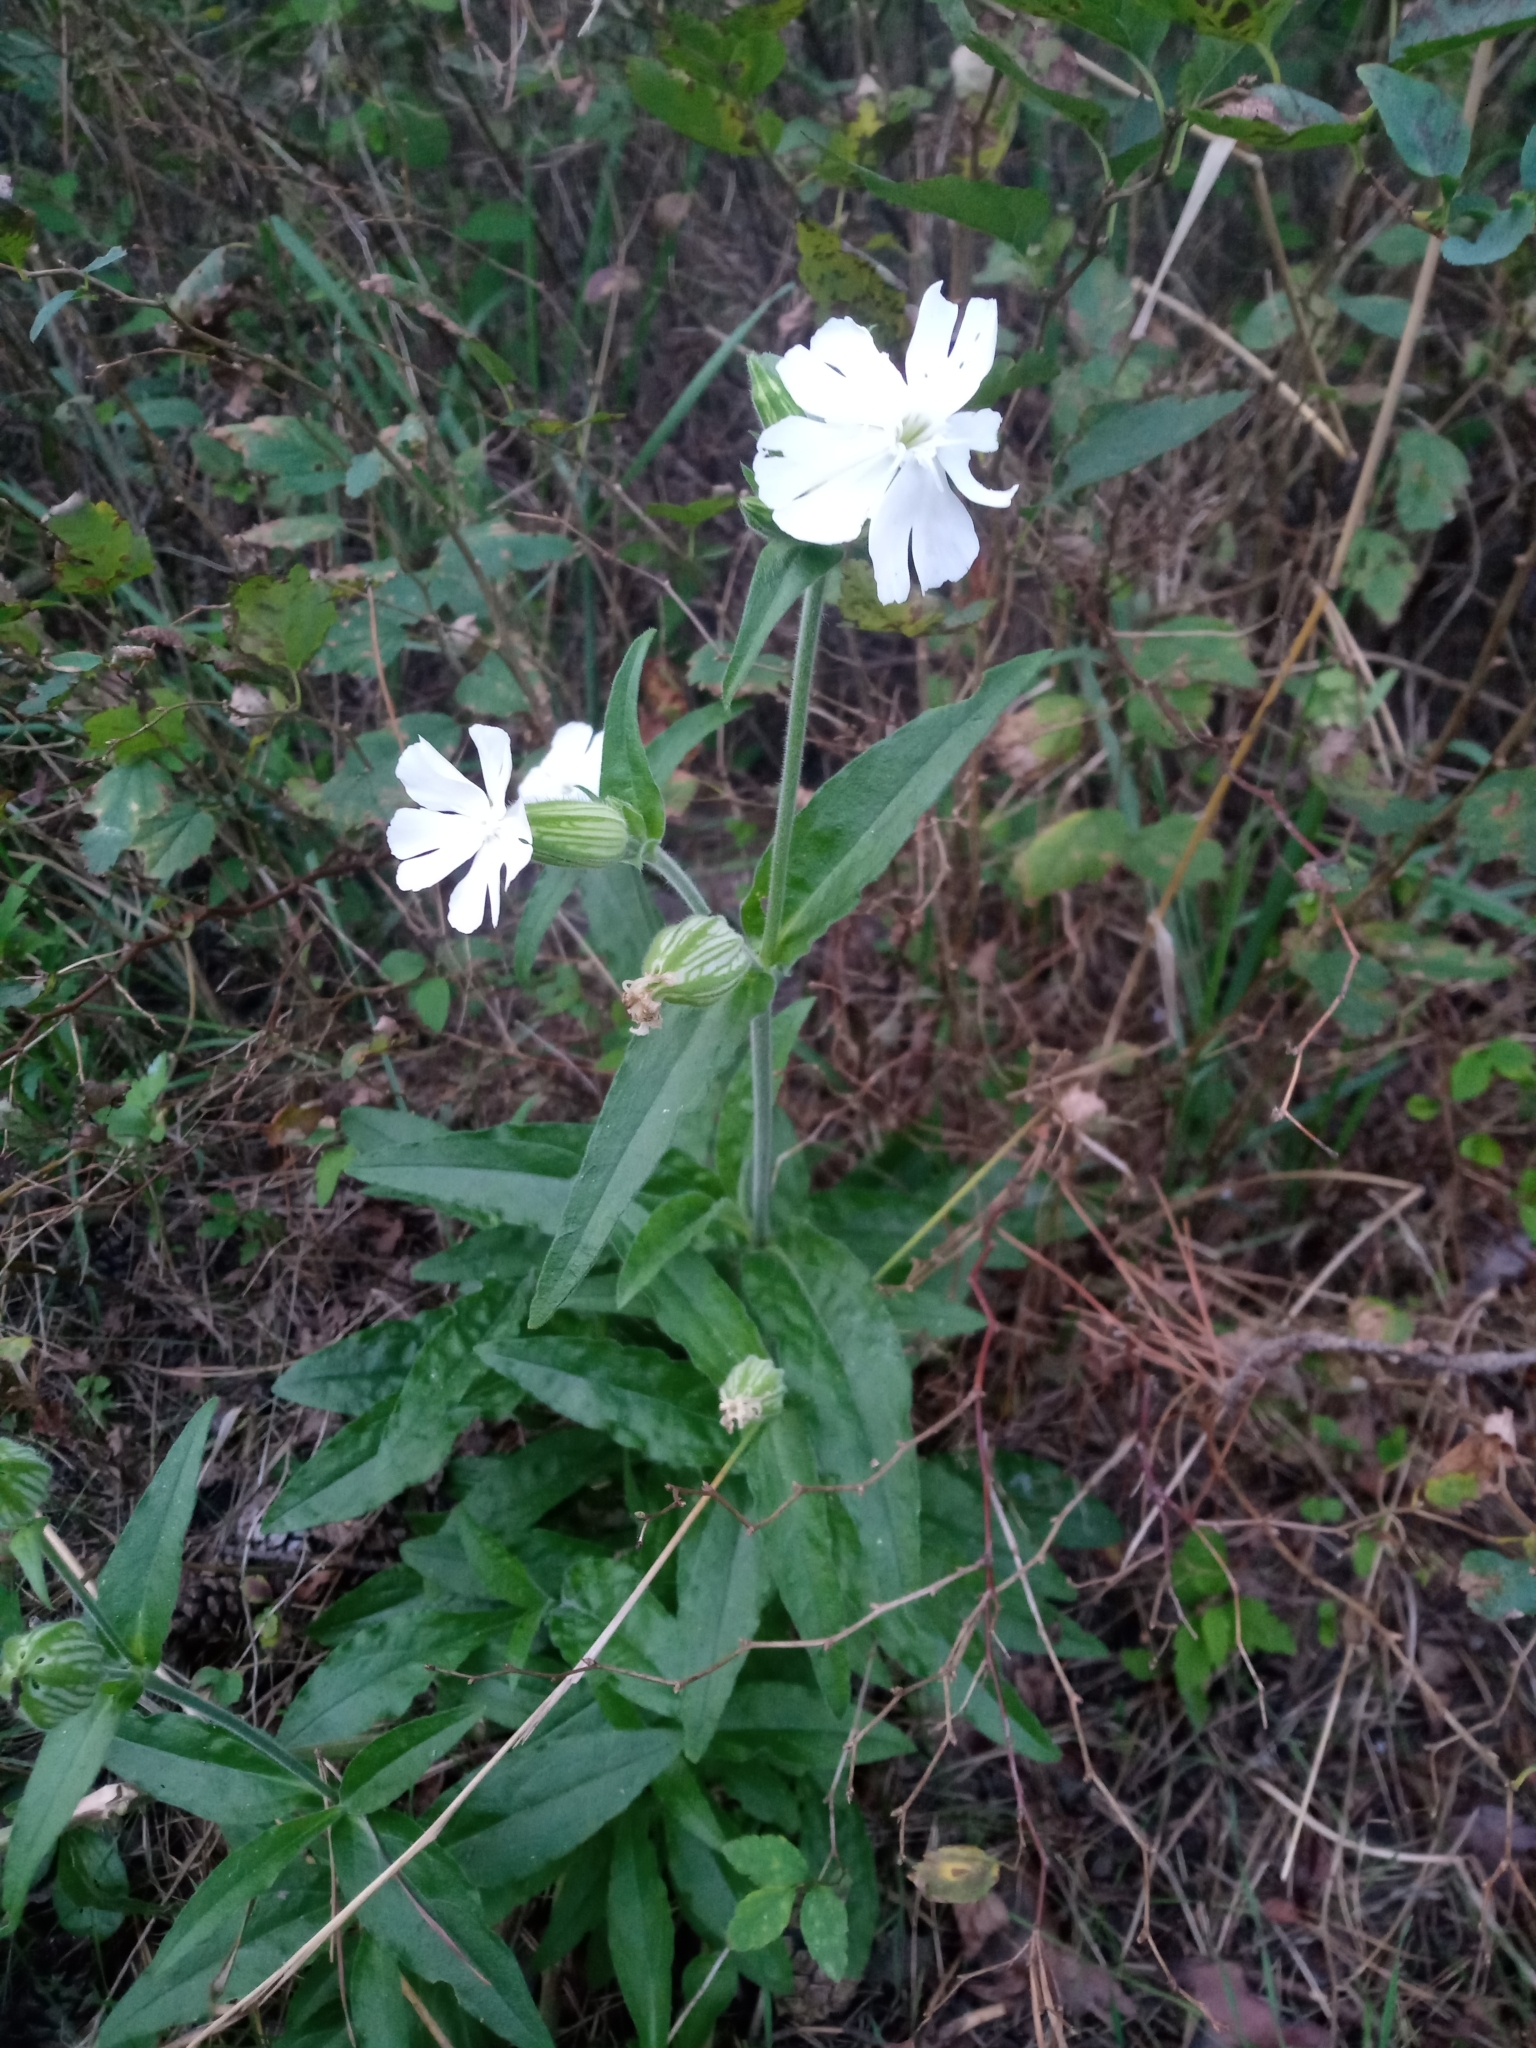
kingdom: Plantae
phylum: Tracheophyta
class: Magnoliopsida
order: Caryophyllales
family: Caryophyllaceae
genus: Silene
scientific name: Silene latifolia
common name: White campion
